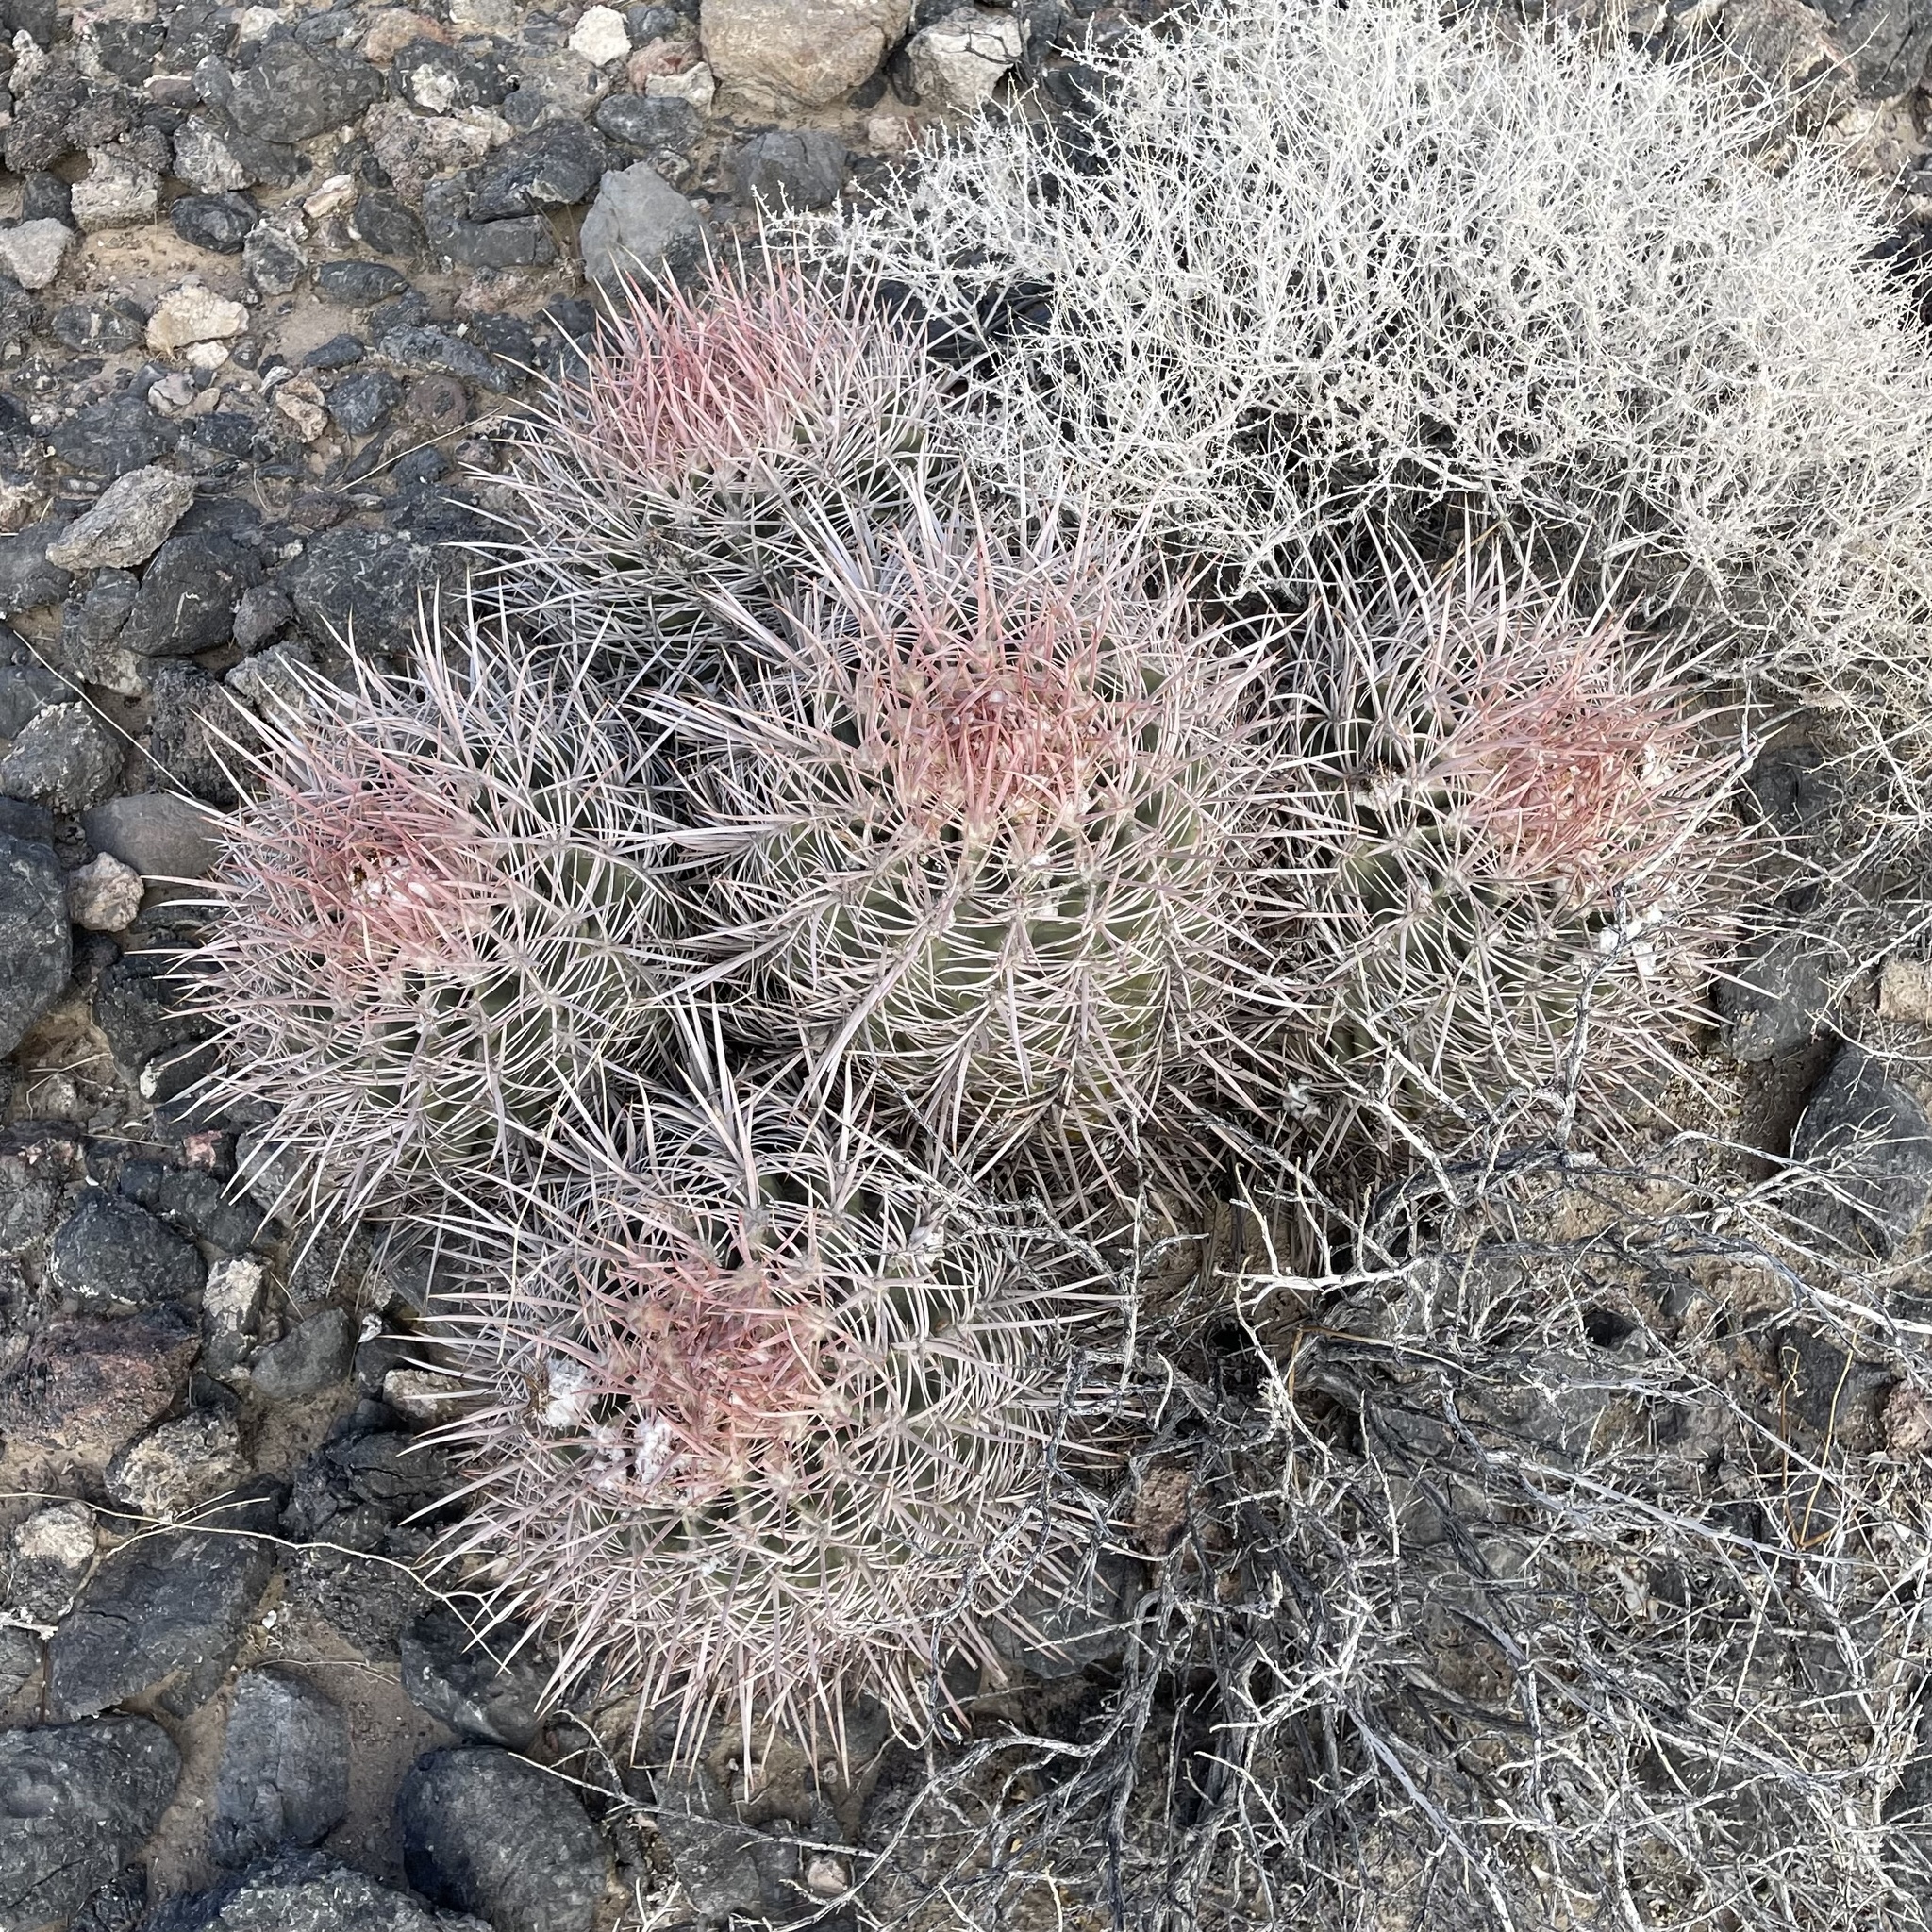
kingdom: Plantae
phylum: Tracheophyta
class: Magnoliopsida
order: Caryophyllales
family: Cactaceae
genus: Echinocactus
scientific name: Echinocactus polycephalus
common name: Cottontop cactus
